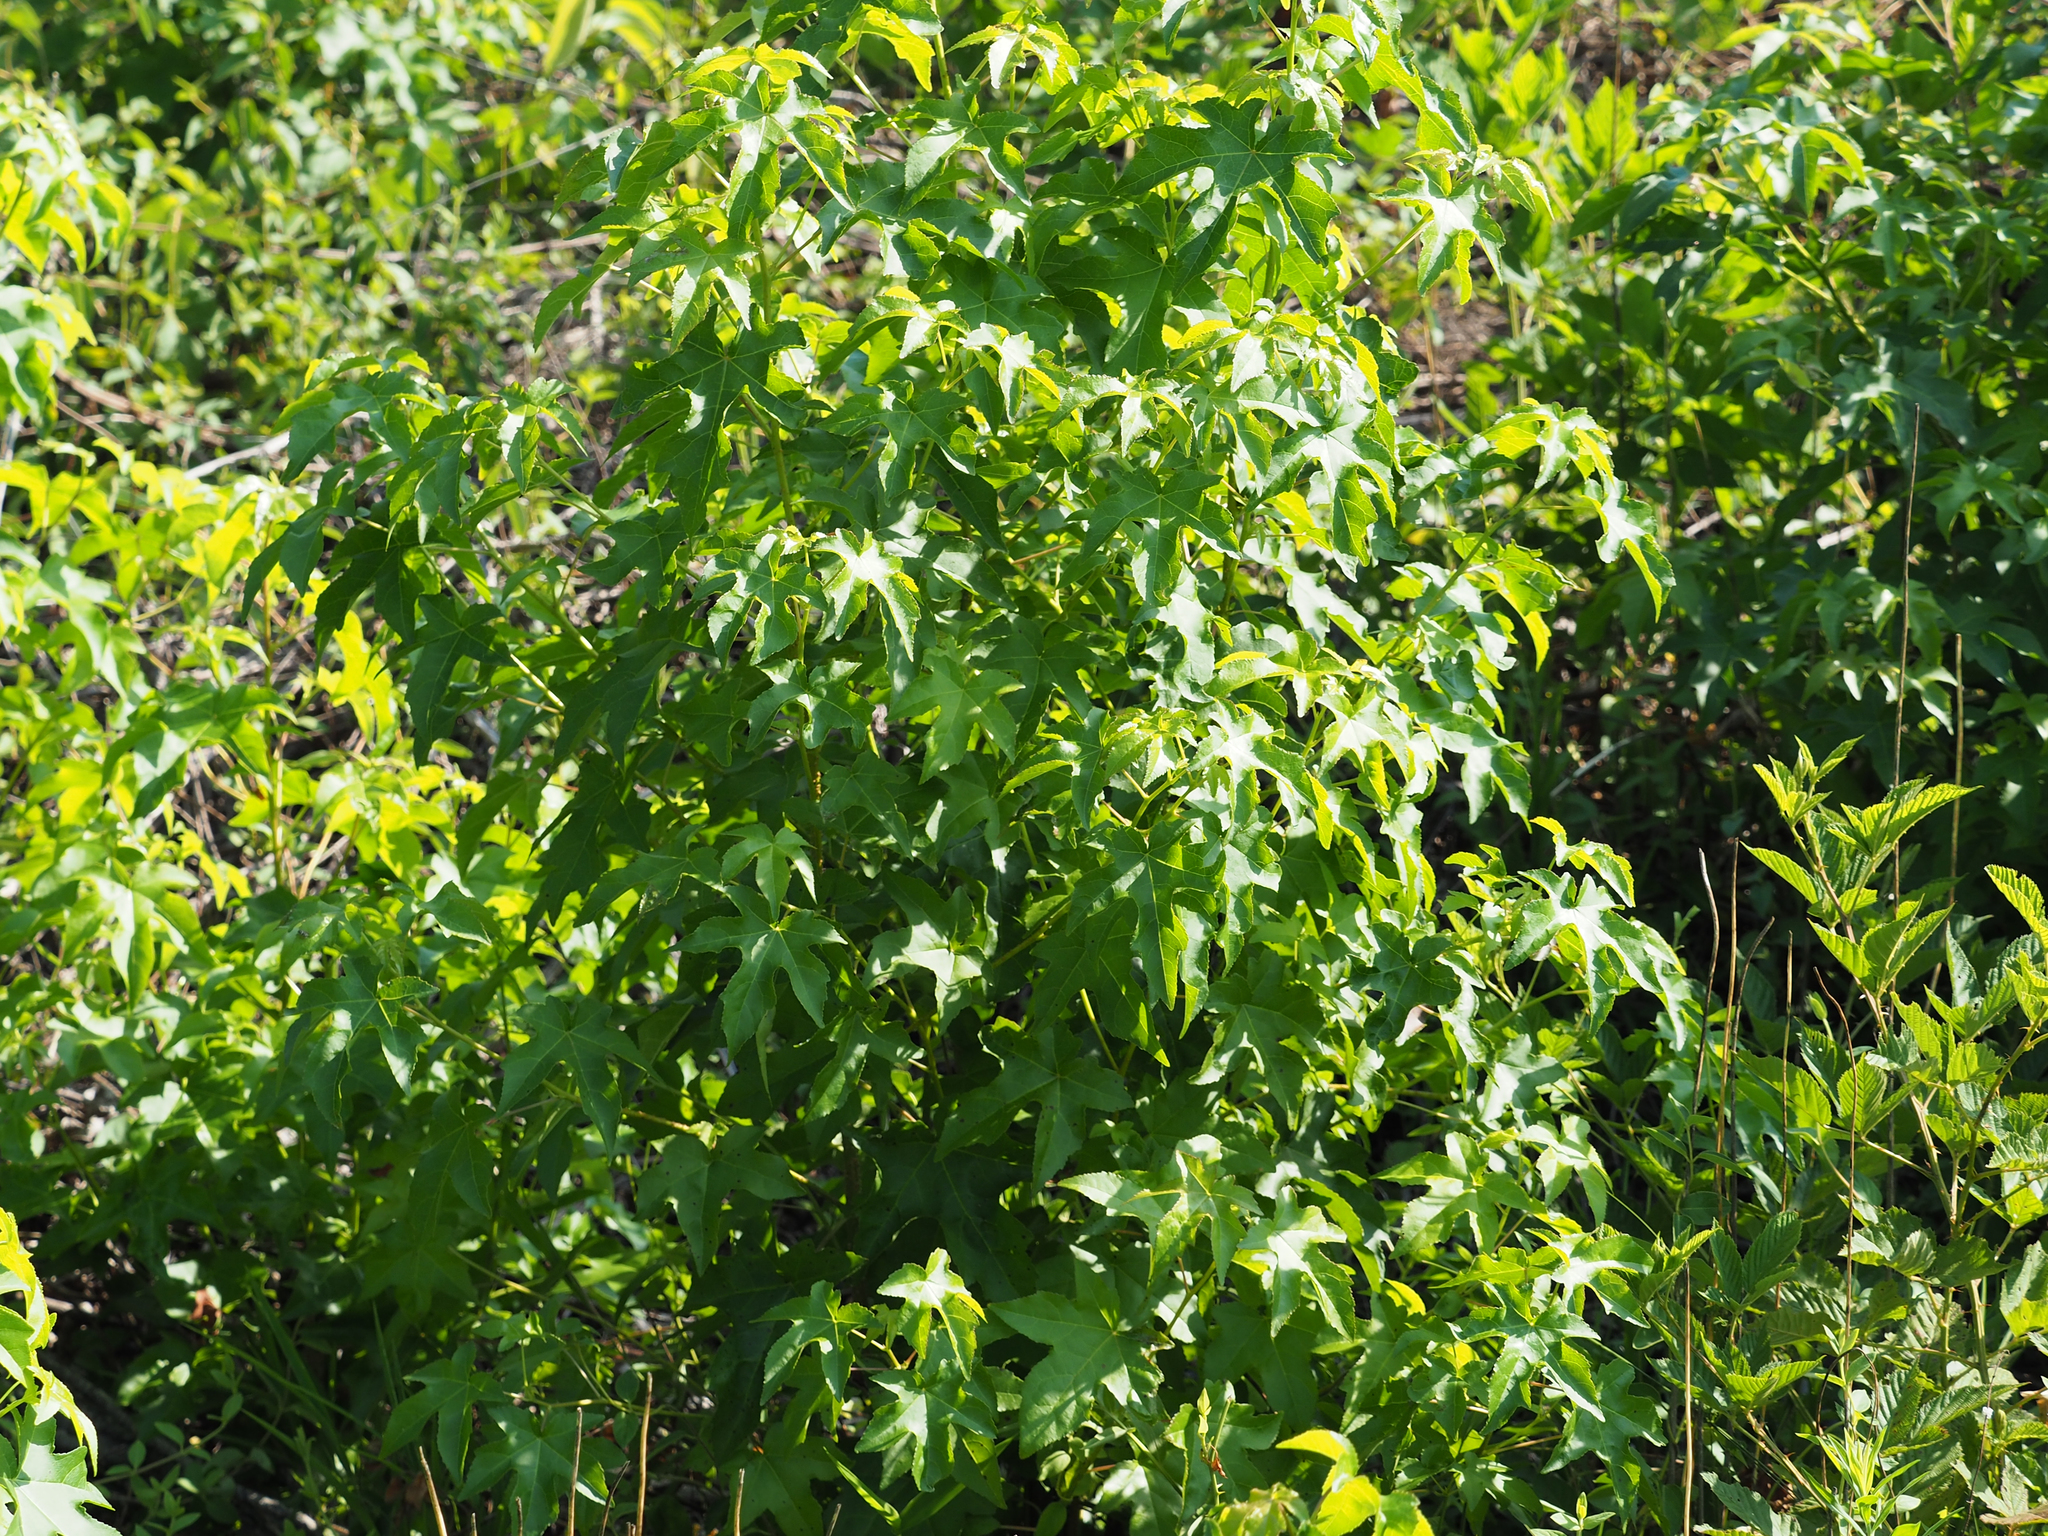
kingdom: Plantae
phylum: Tracheophyta
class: Magnoliopsida
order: Saxifragales
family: Altingiaceae
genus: Liquidambar
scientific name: Liquidambar styraciflua
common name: Sweet gum
